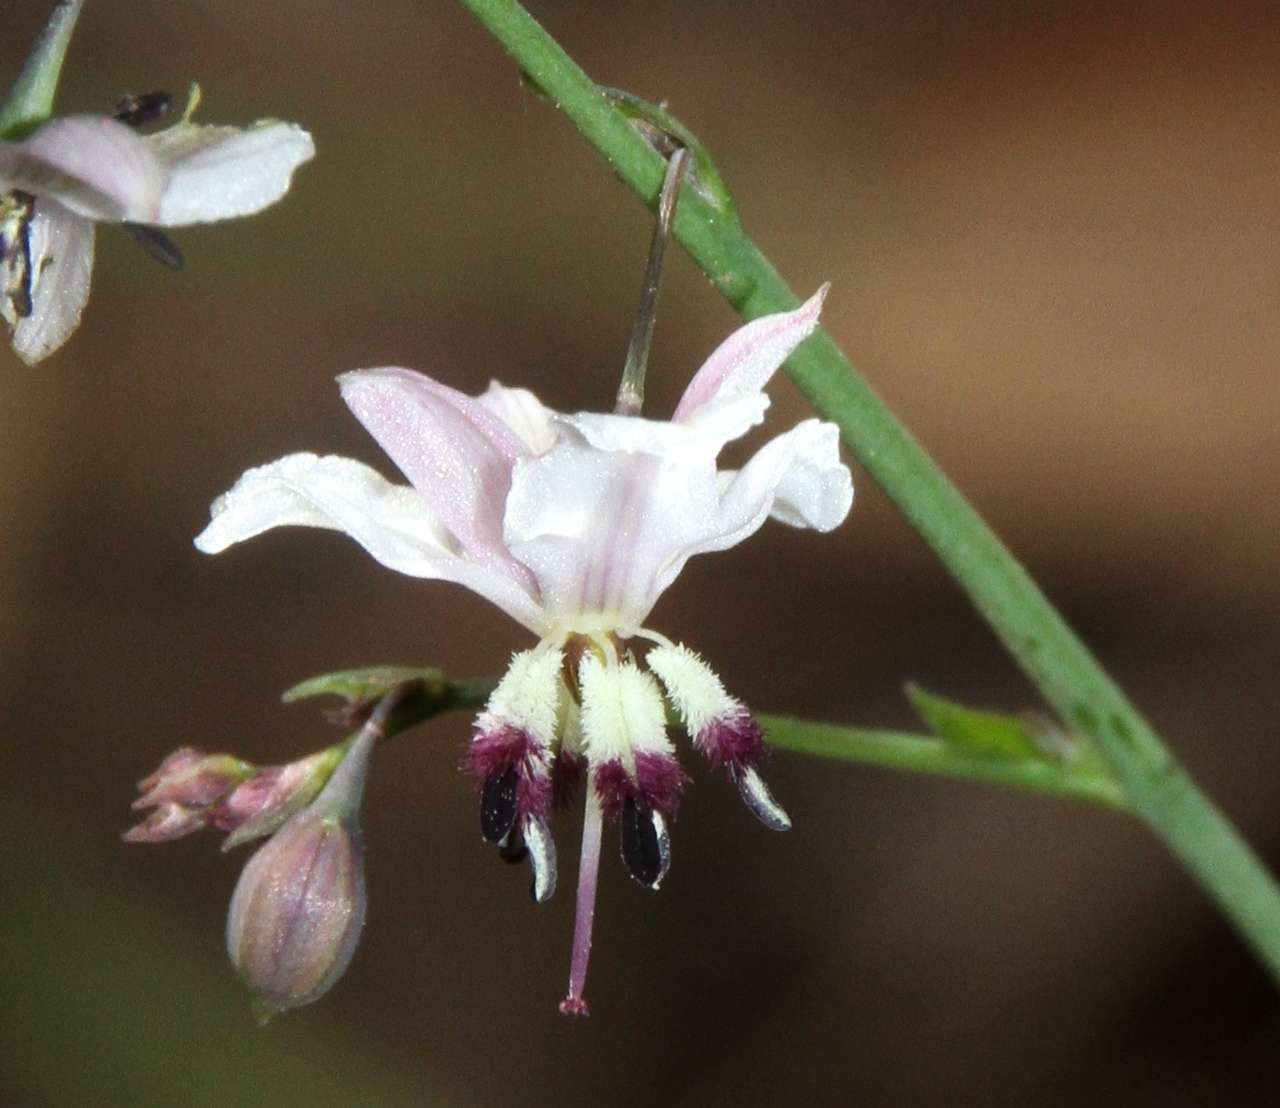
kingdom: Plantae
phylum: Tracheophyta
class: Liliopsida
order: Asparagales
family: Asparagaceae
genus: Arthropodium
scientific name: Arthropodium milleflorum
